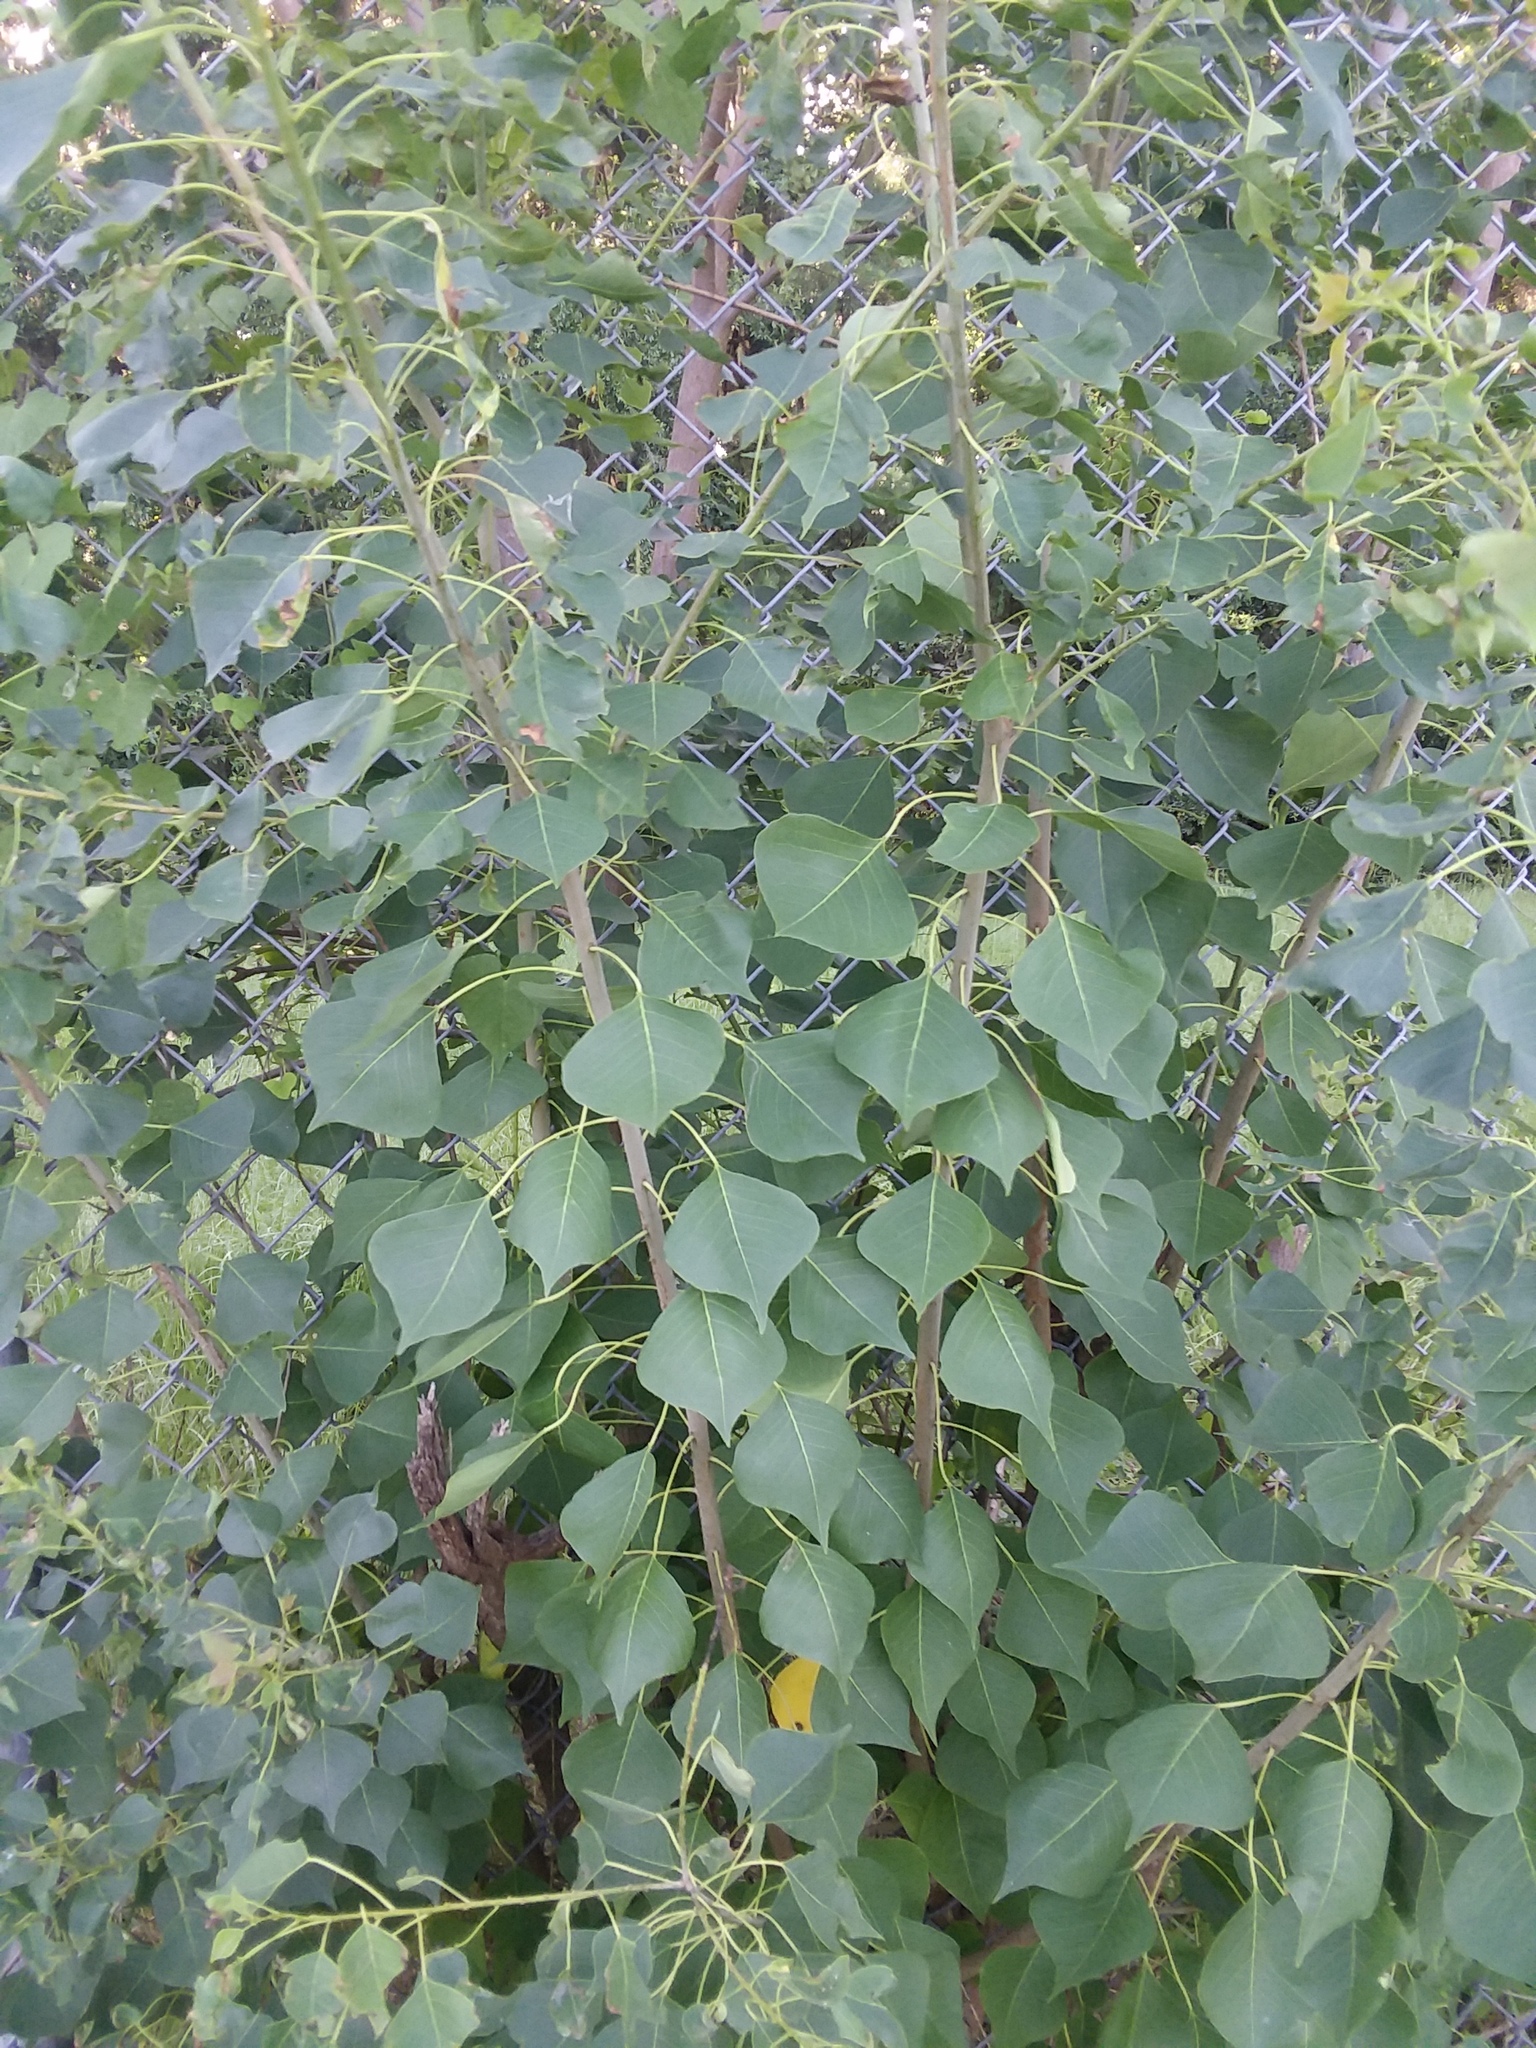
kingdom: Plantae
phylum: Tracheophyta
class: Magnoliopsida
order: Malpighiales
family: Euphorbiaceae
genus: Triadica
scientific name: Triadica sebifera
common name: Chinese tallow
